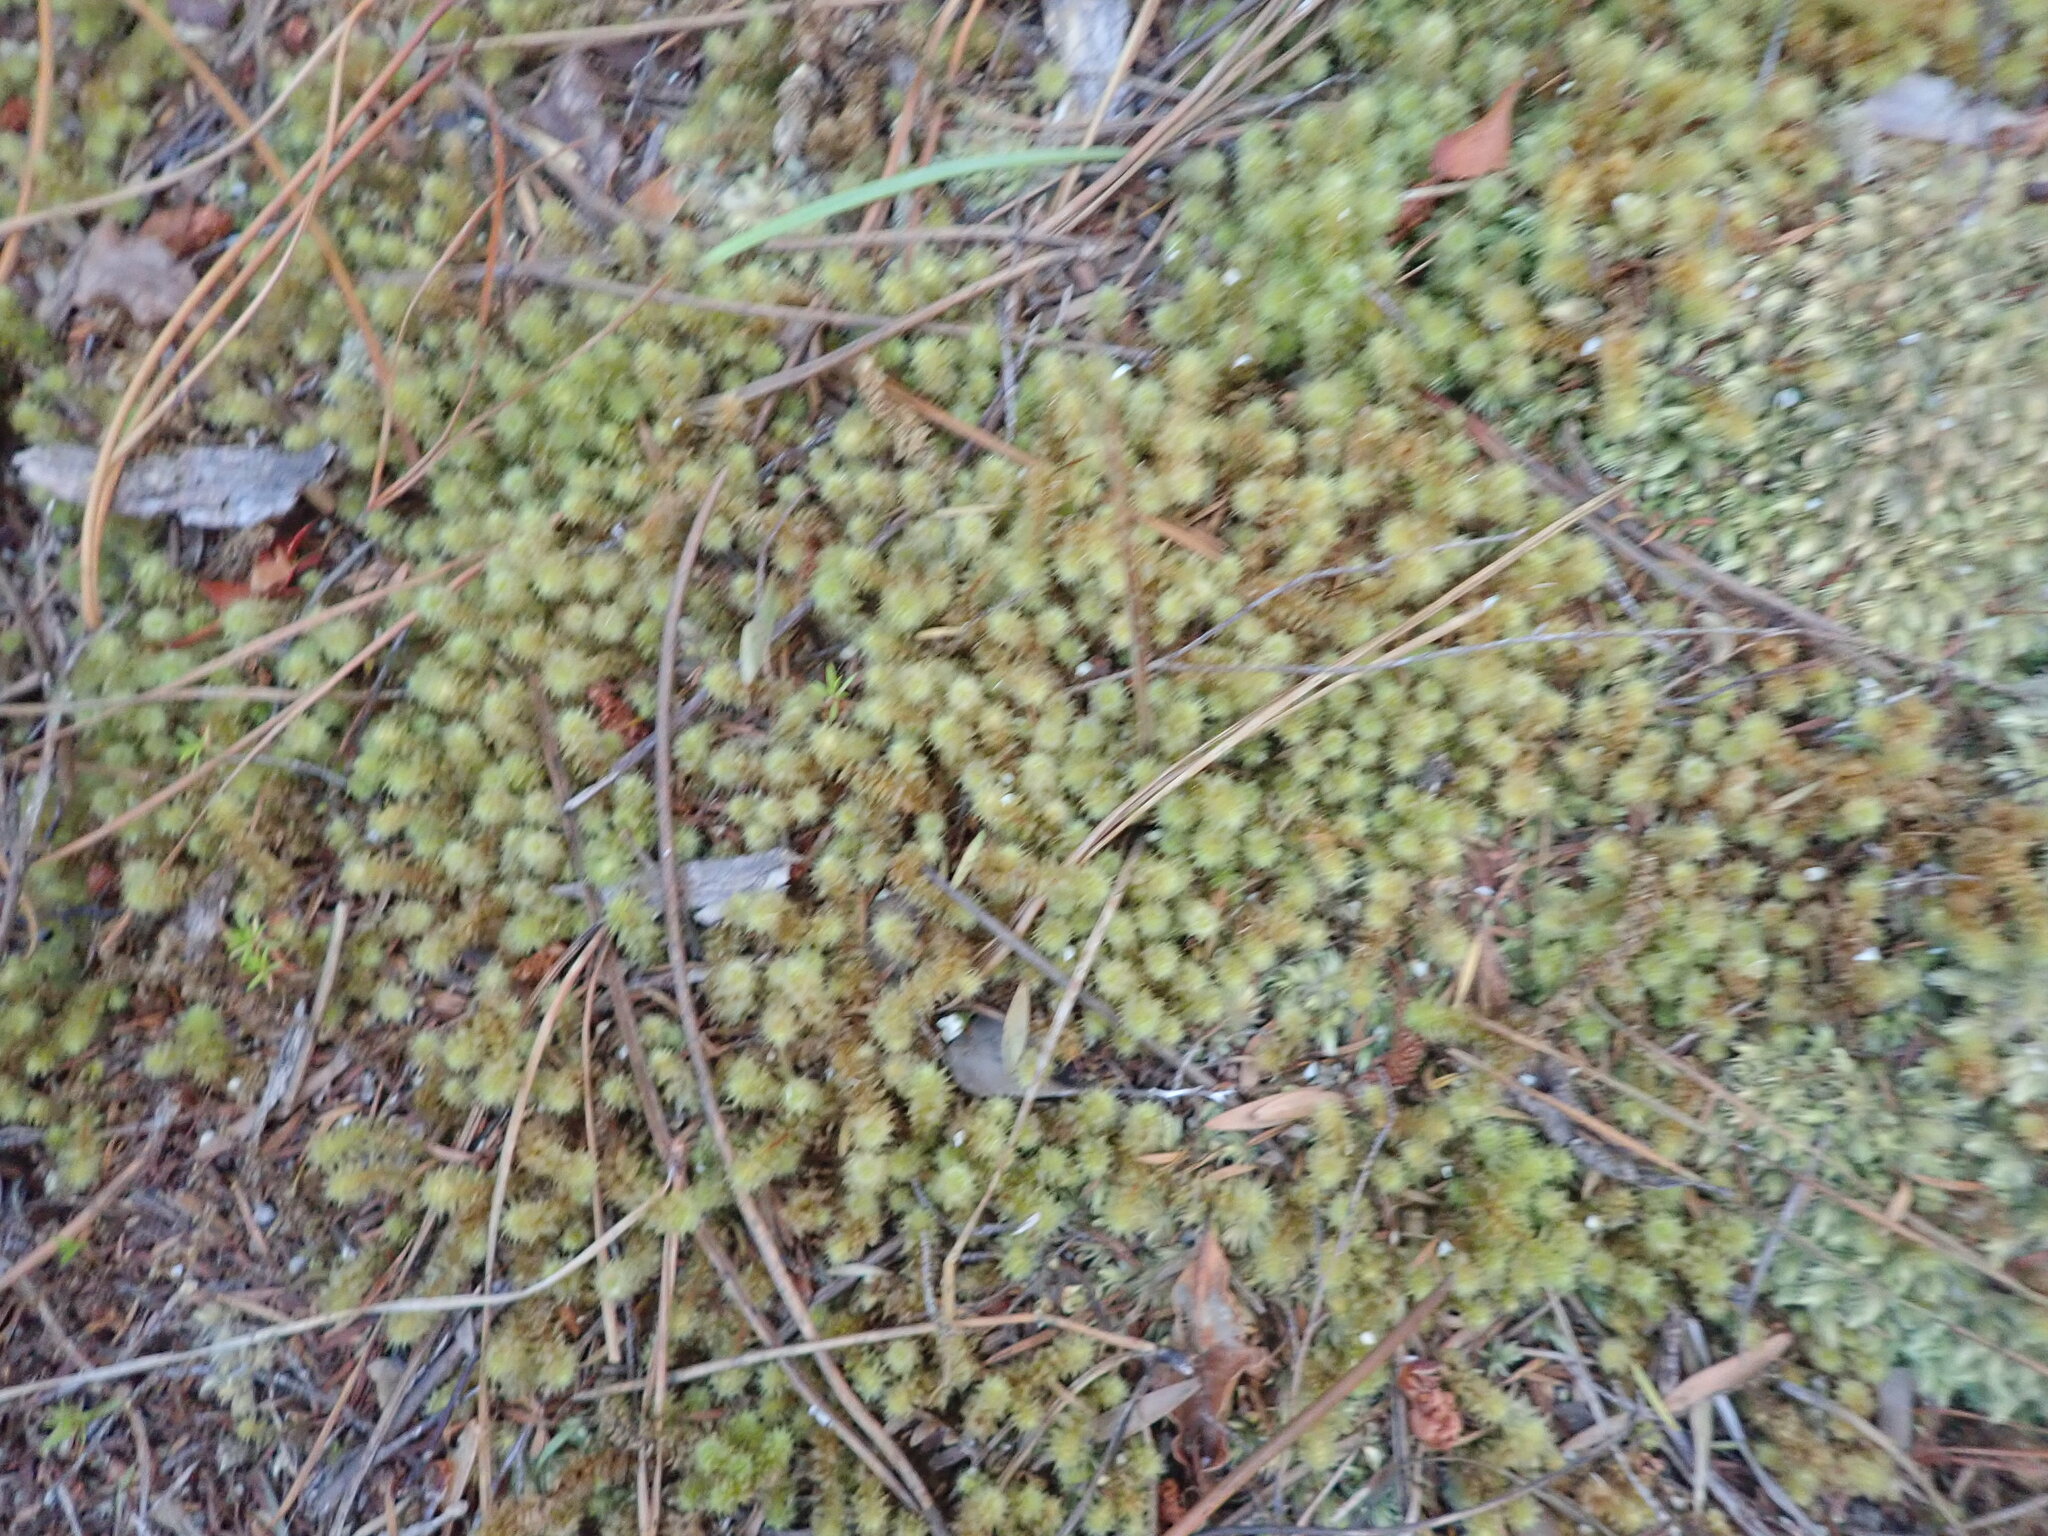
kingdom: Plantae
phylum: Bryophyta
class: Bryopsida
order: Ptychomniales
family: Ptychomniaceae
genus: Ptychomnion
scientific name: Ptychomnion aciculare
